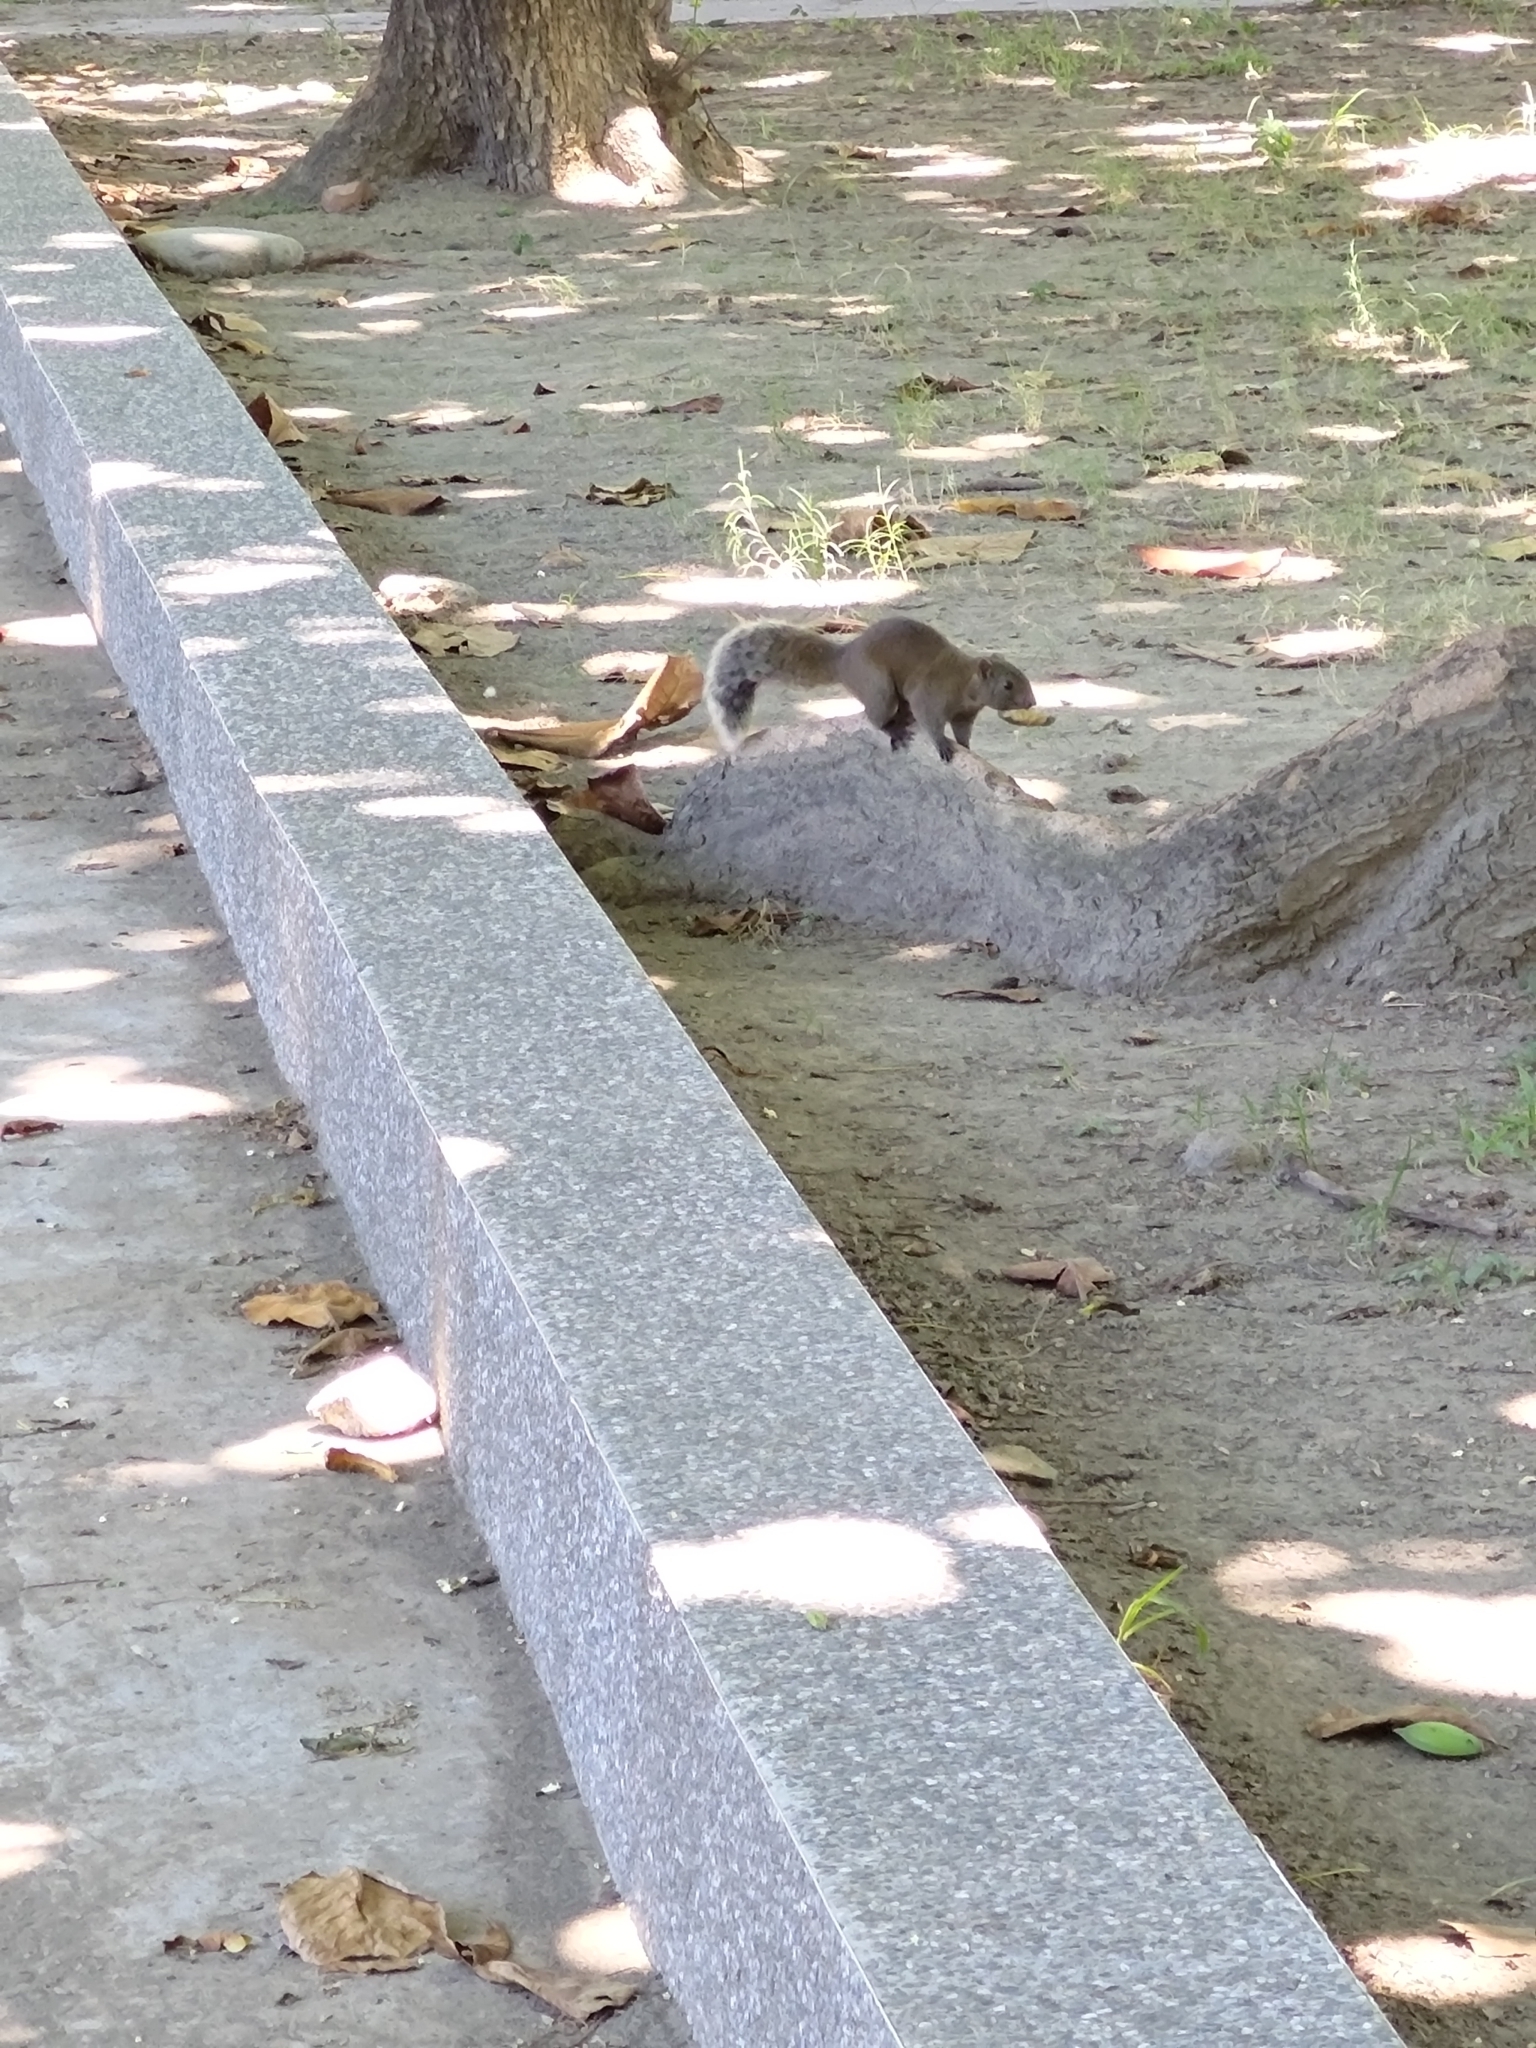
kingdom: Animalia
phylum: Chordata
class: Mammalia
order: Rodentia
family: Sciuridae
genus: Callosciurus
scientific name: Callosciurus erythraeus
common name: Pallas's squirrel
